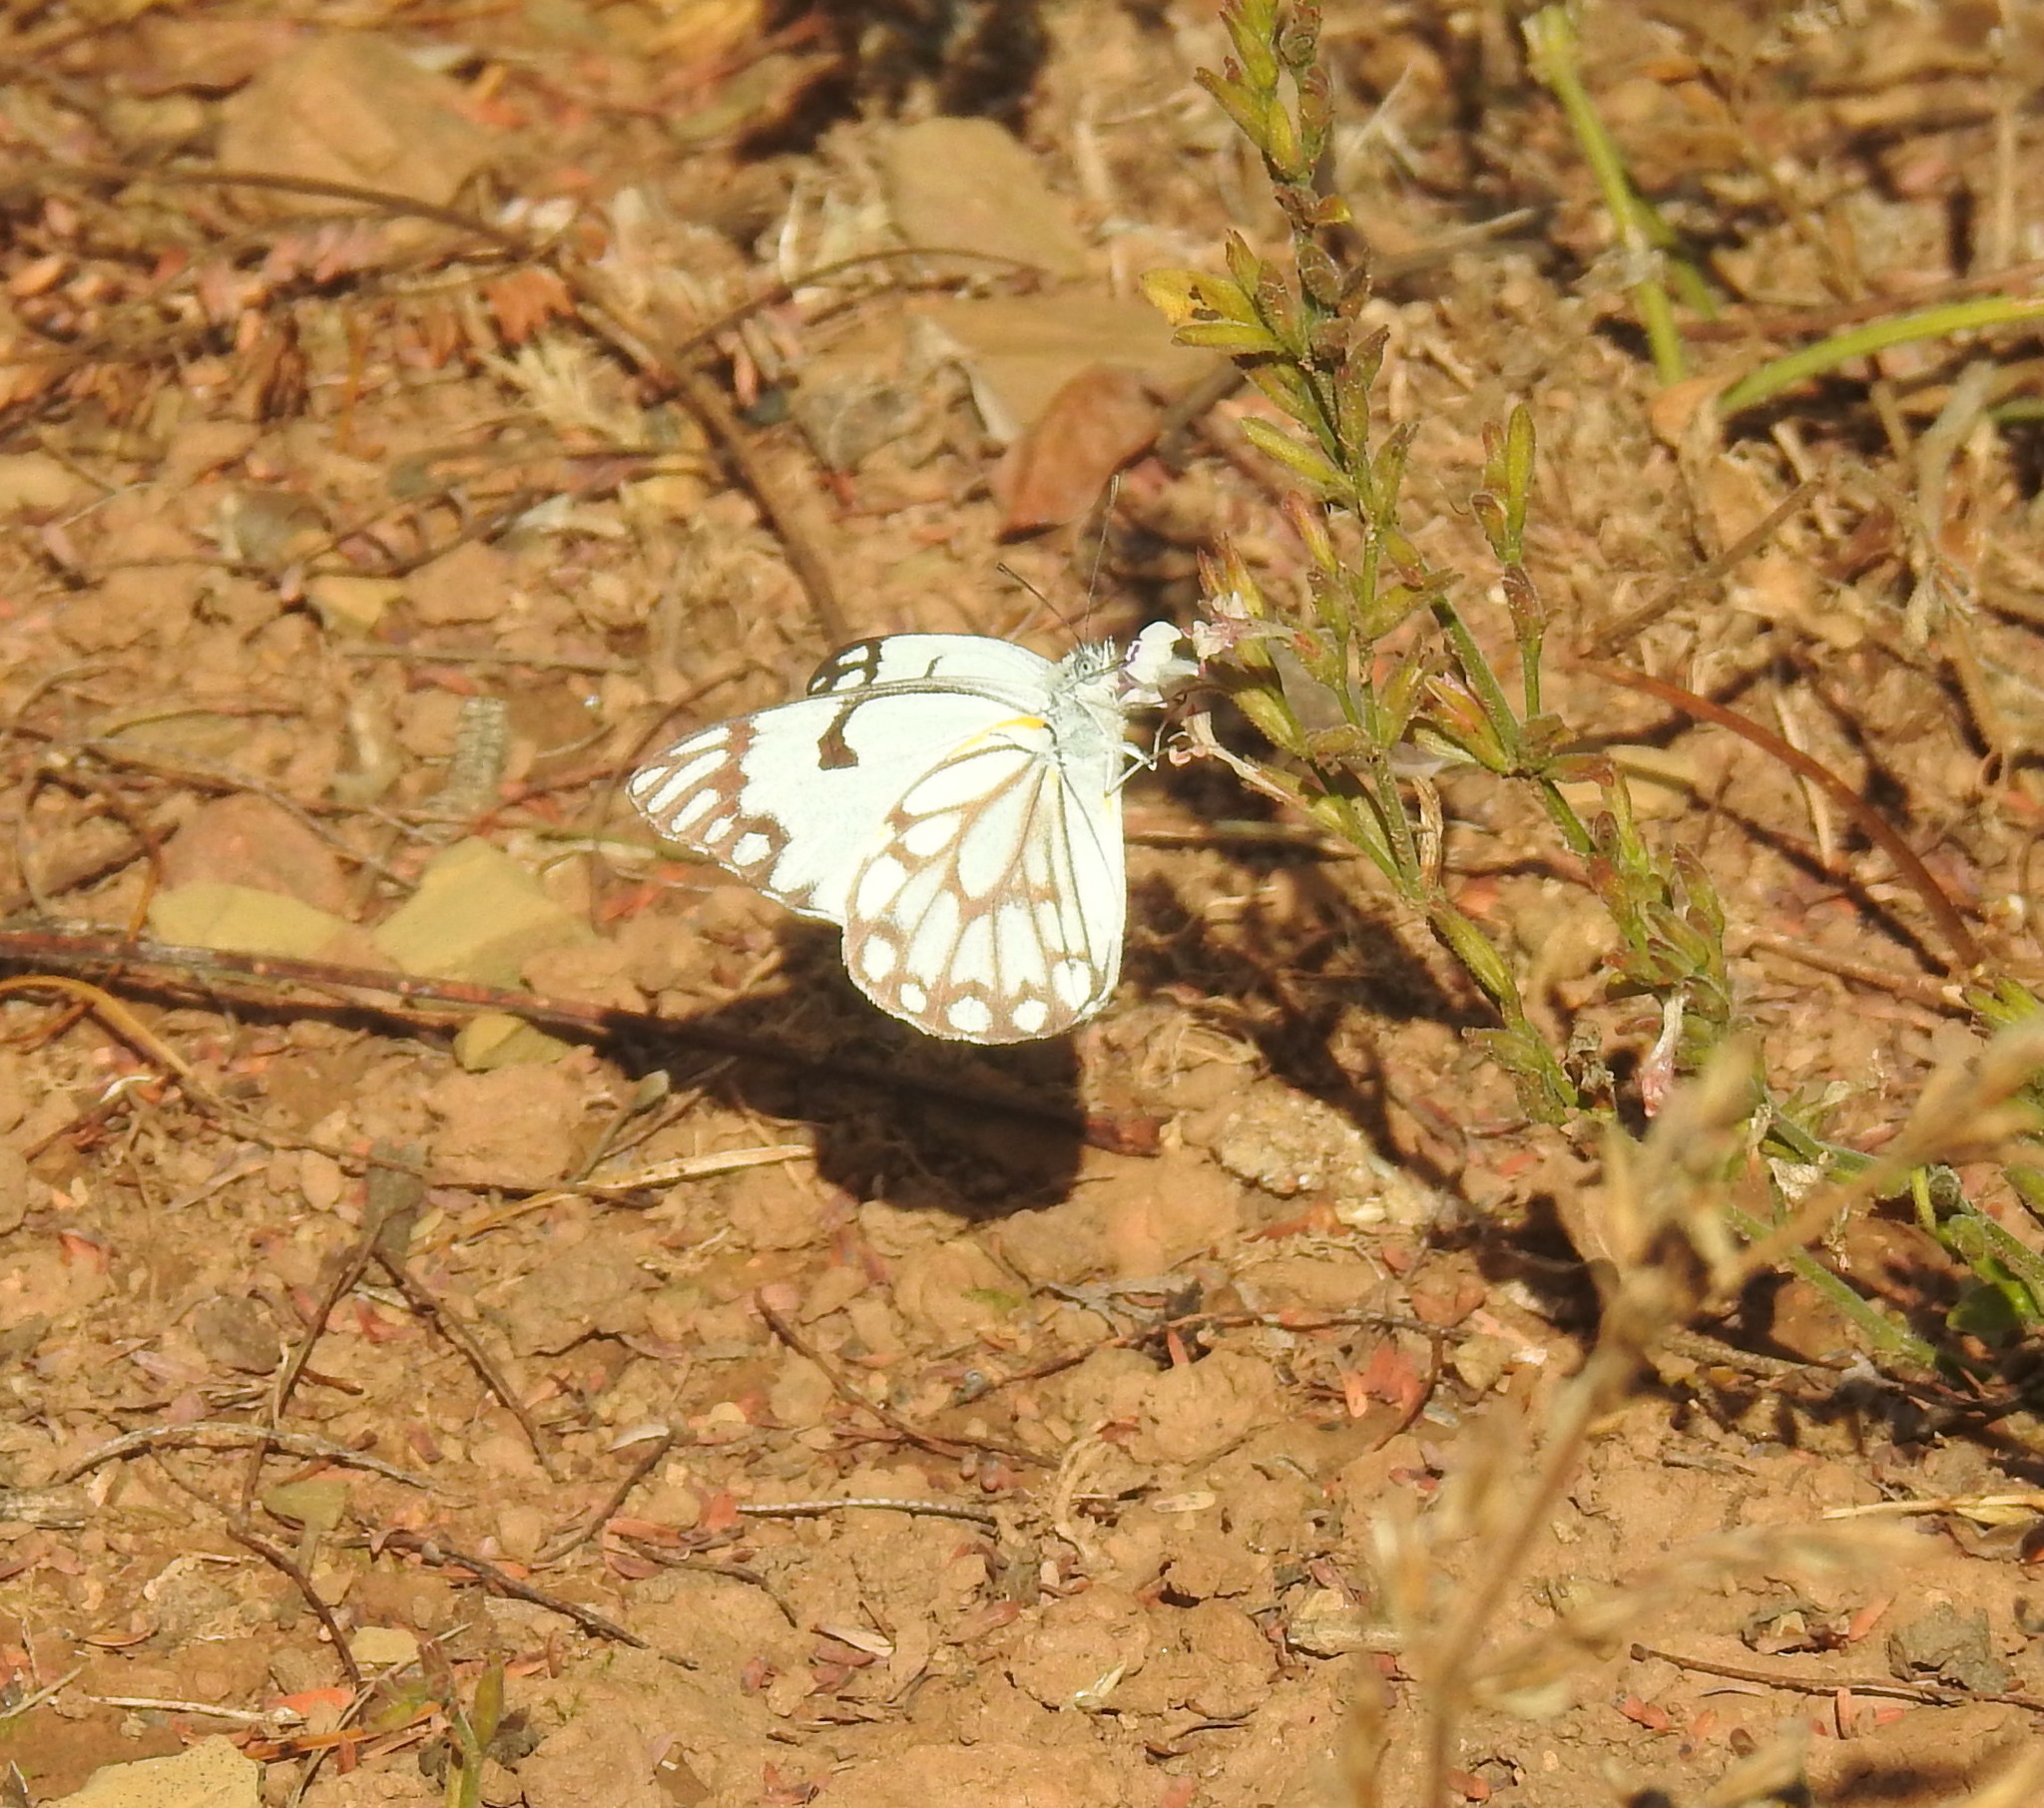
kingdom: Animalia
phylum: Arthropoda
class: Insecta
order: Lepidoptera
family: Pieridae
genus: Belenois
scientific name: Belenois aurota
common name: Brown-veined white
